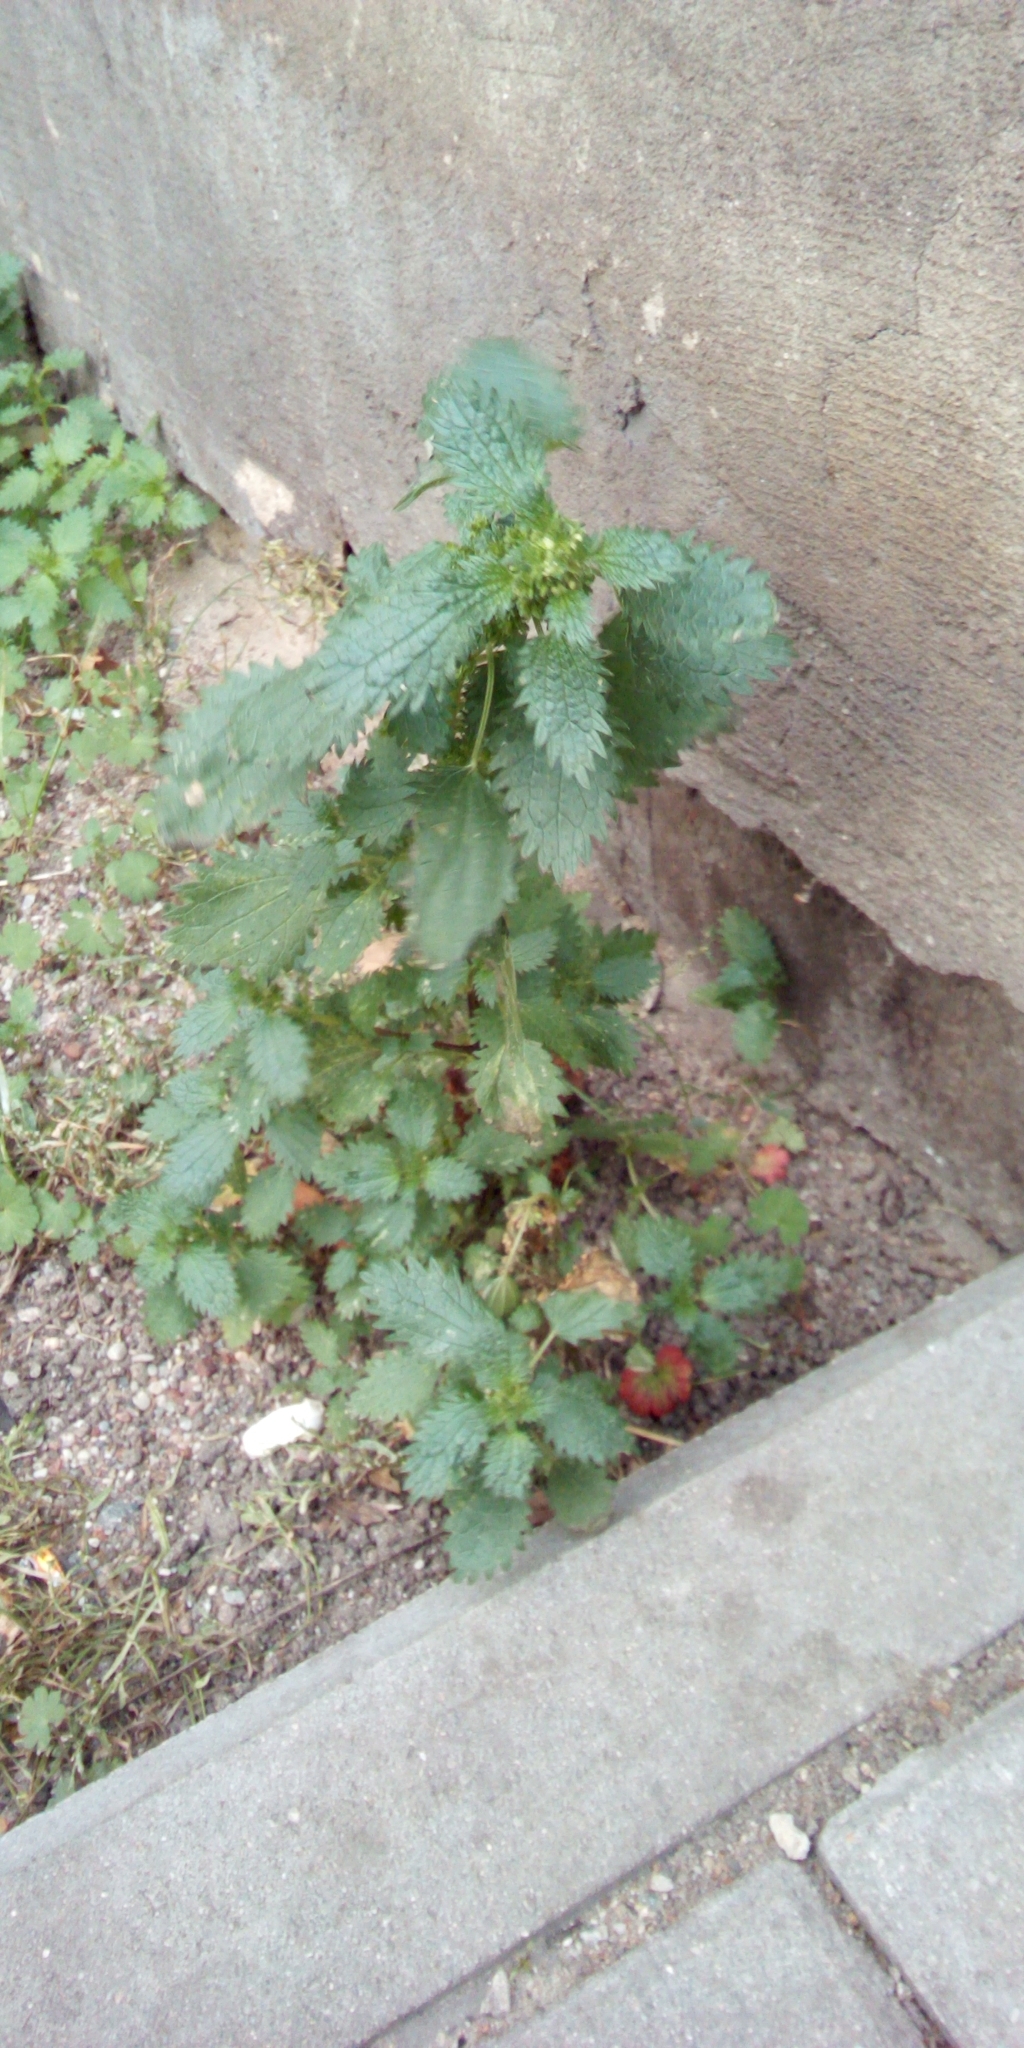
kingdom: Plantae
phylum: Tracheophyta
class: Magnoliopsida
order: Rosales
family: Urticaceae
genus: Urtica
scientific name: Urtica urens
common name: Dwarf nettle
